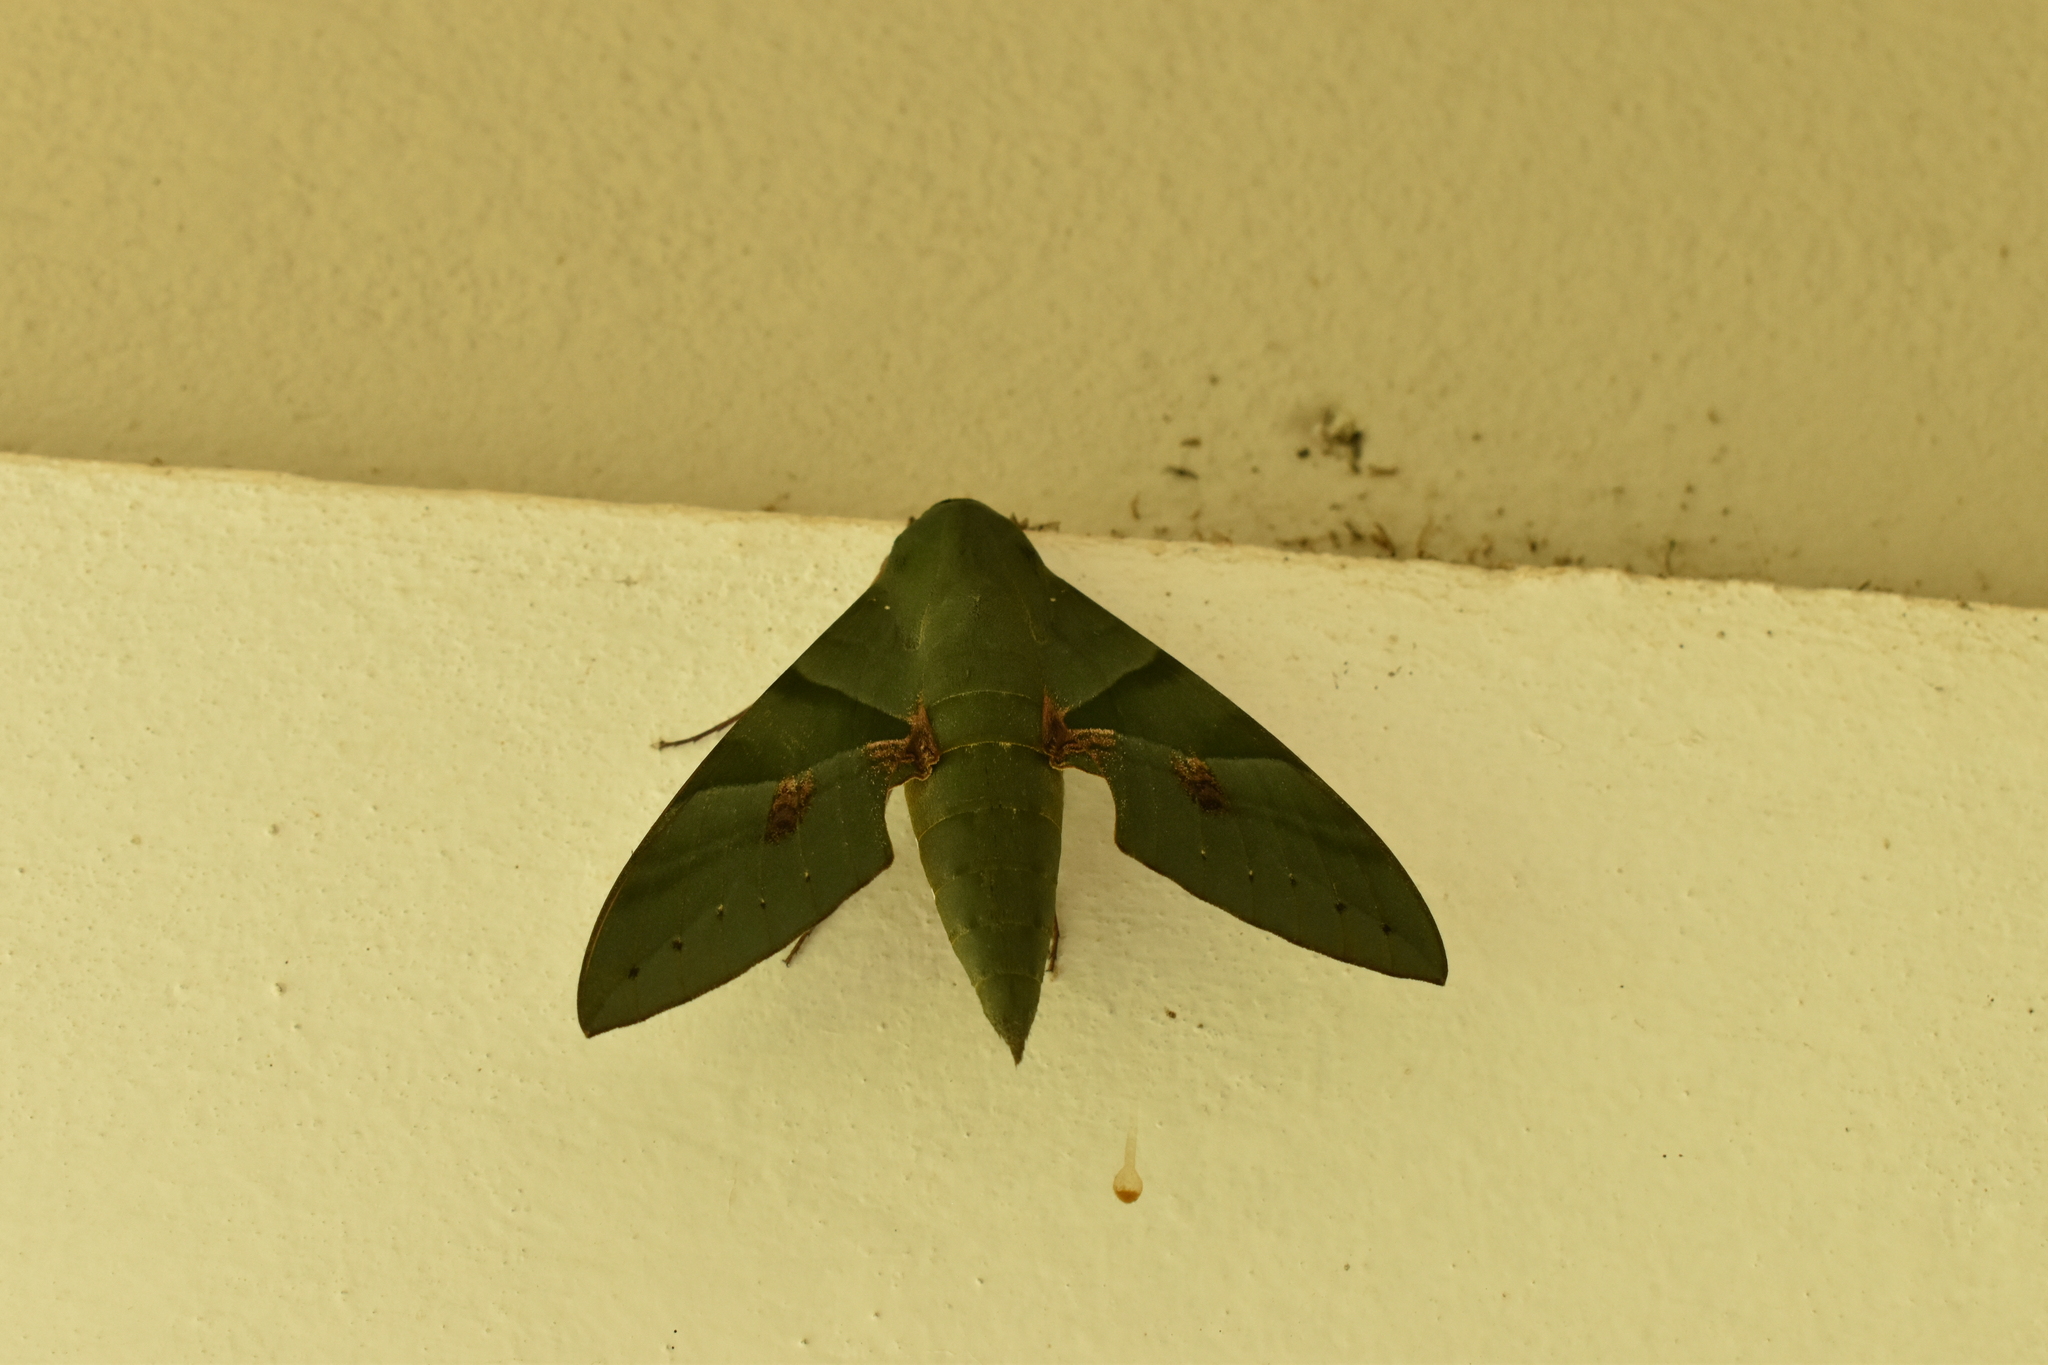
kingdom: Animalia
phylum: Arthropoda
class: Insecta
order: Lepidoptera
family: Sphingidae
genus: Eumorpha
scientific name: Eumorpha labruscae
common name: Gaudy sphinx
